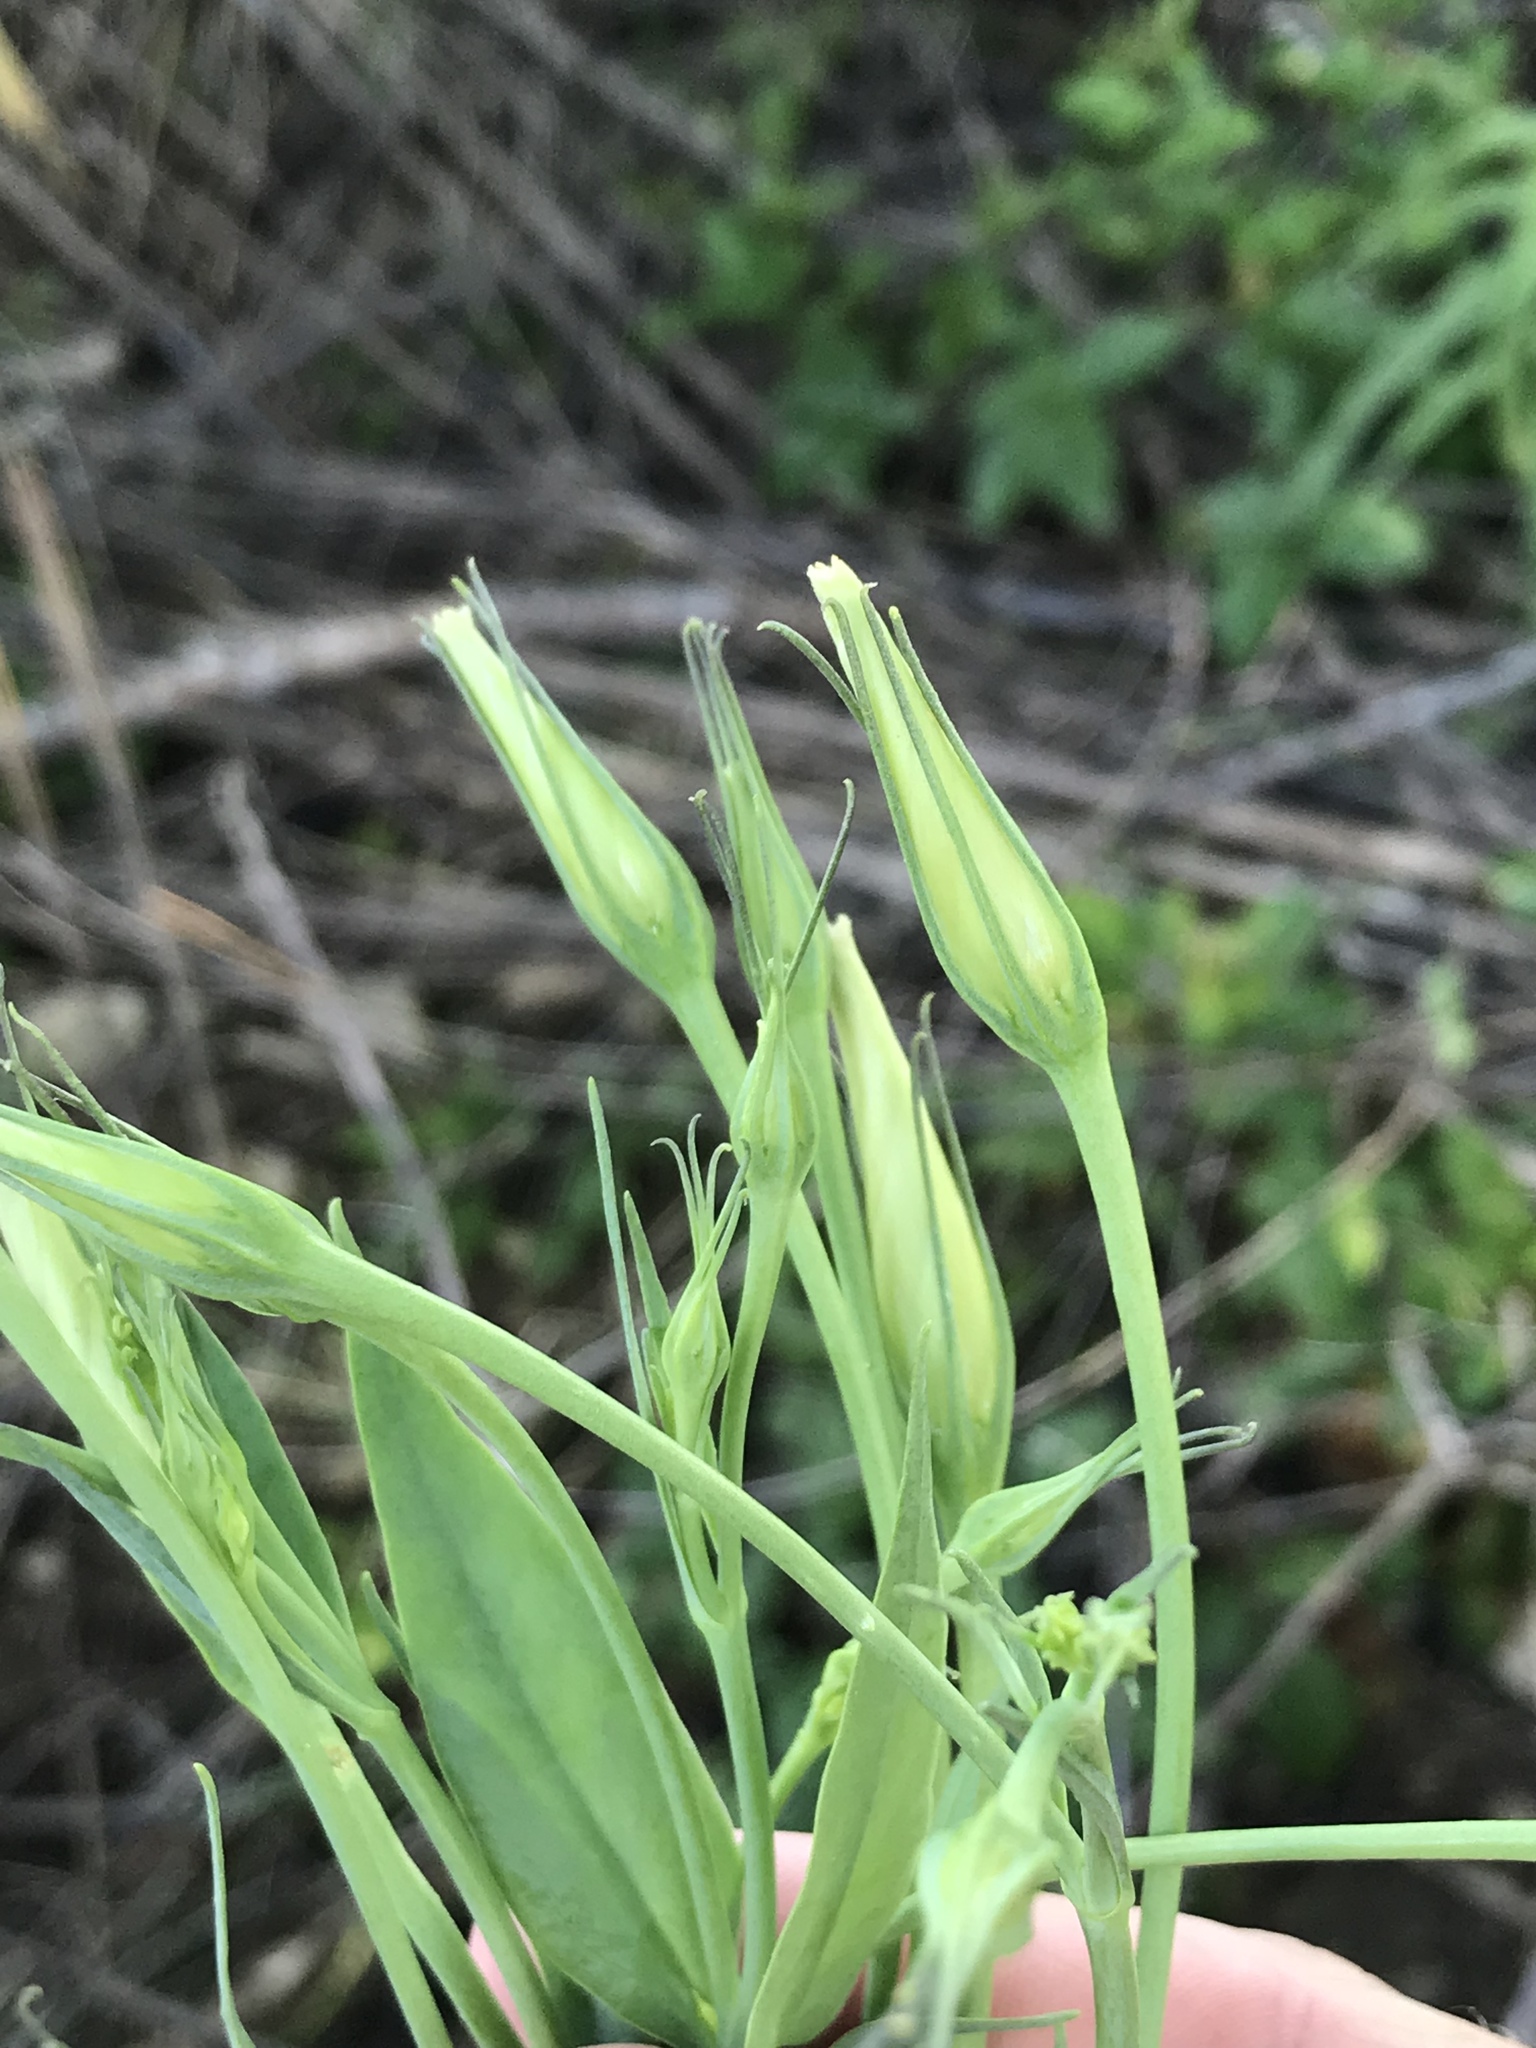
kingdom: Plantae
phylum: Tracheophyta
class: Magnoliopsida
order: Gentianales
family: Gentianaceae
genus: Eustoma
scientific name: Eustoma exaltatum
